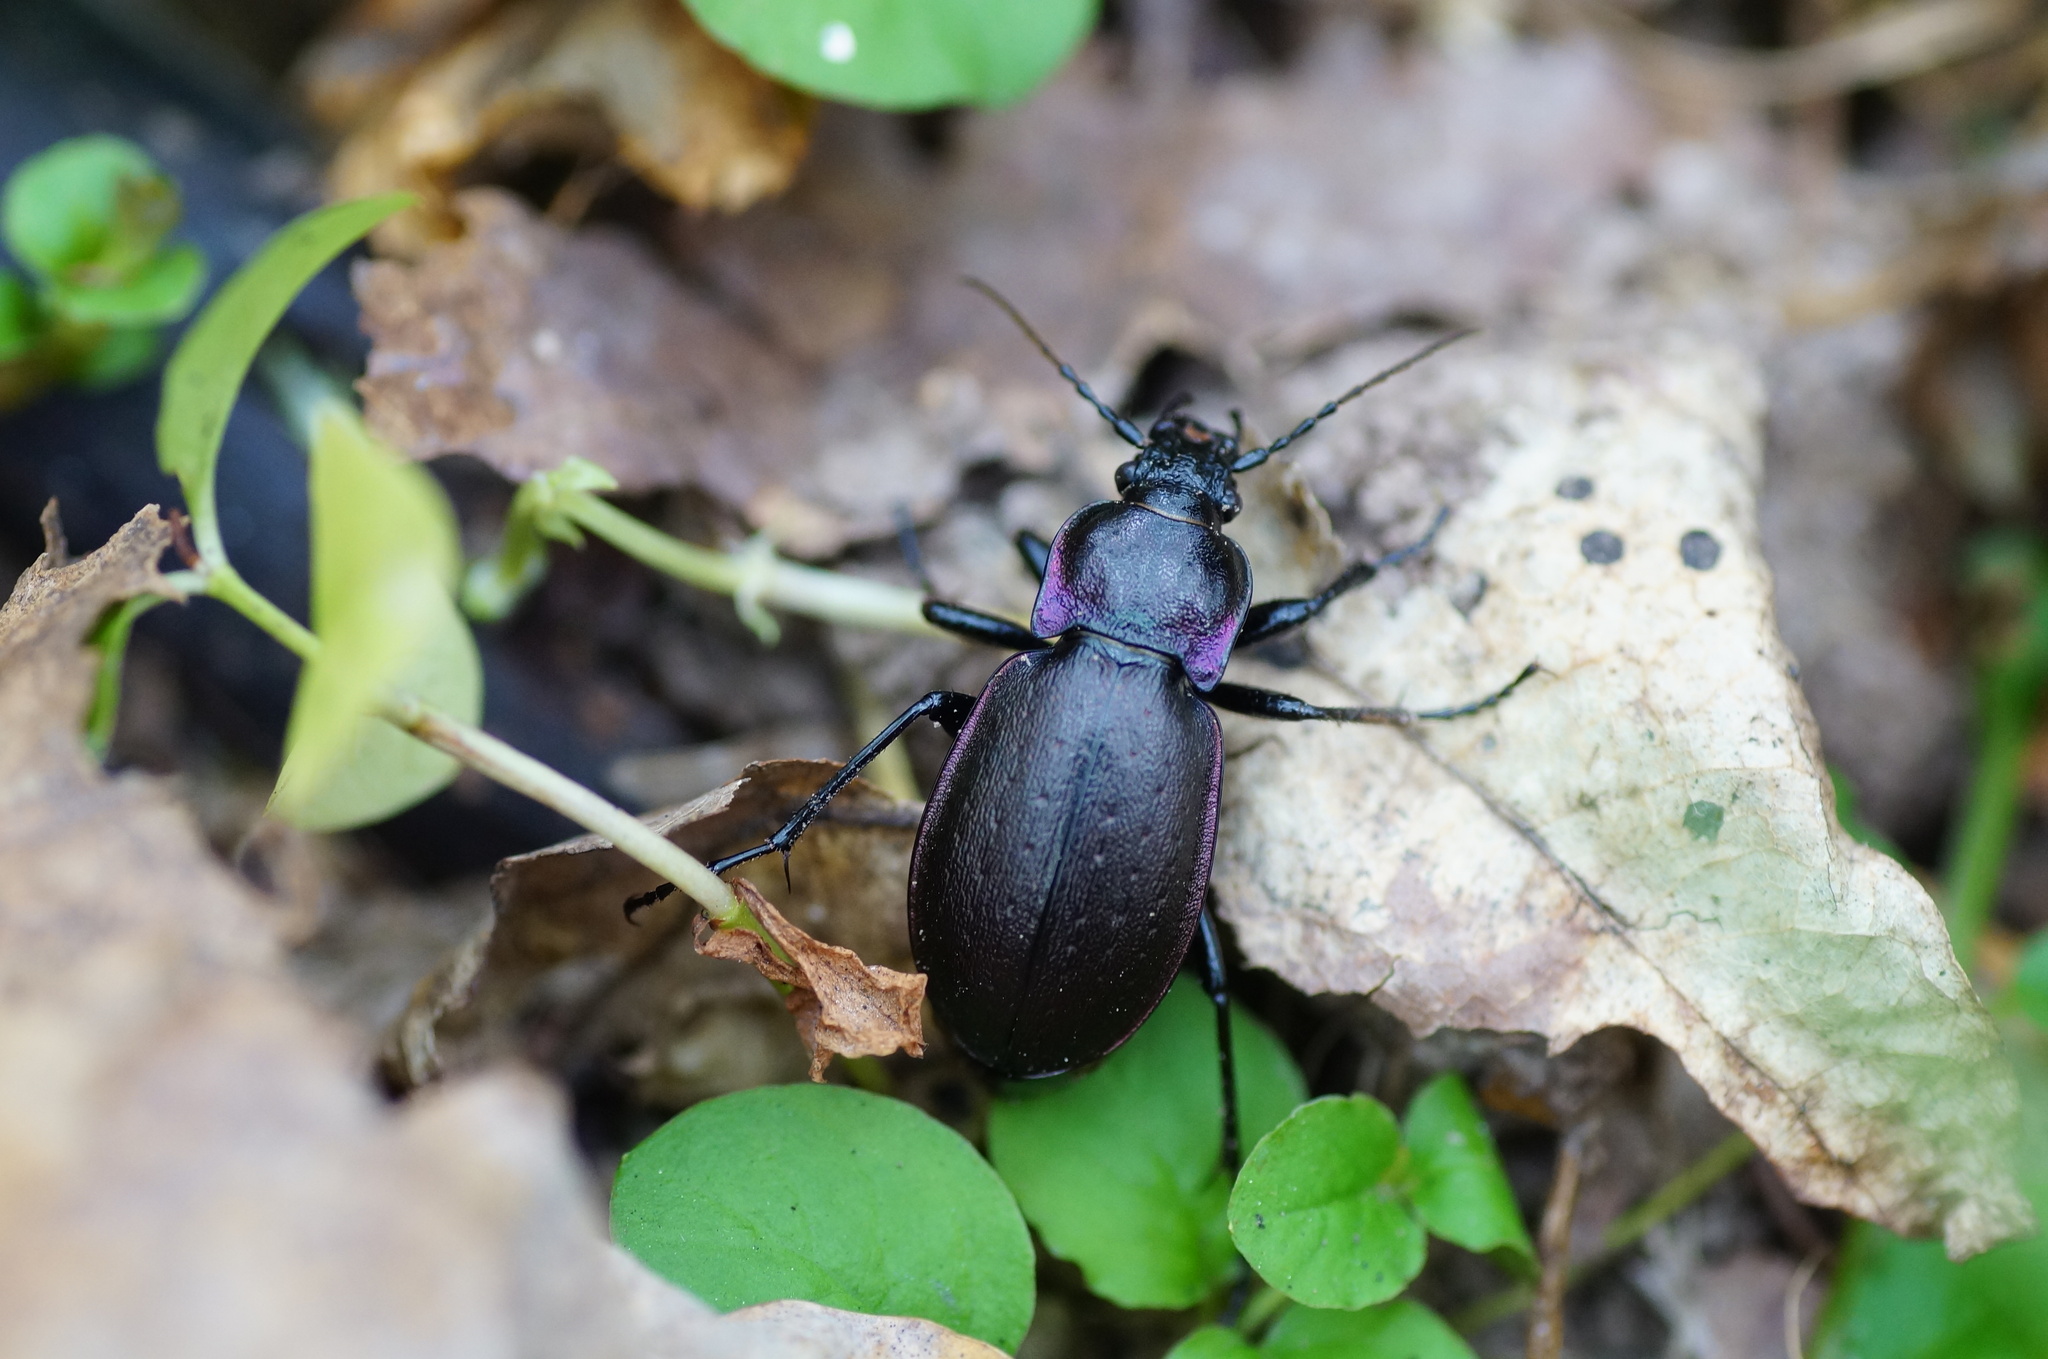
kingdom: Animalia
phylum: Arthropoda
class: Insecta
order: Coleoptera
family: Carabidae
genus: Carabus
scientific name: Carabus nemoralis
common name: European ground beetle
